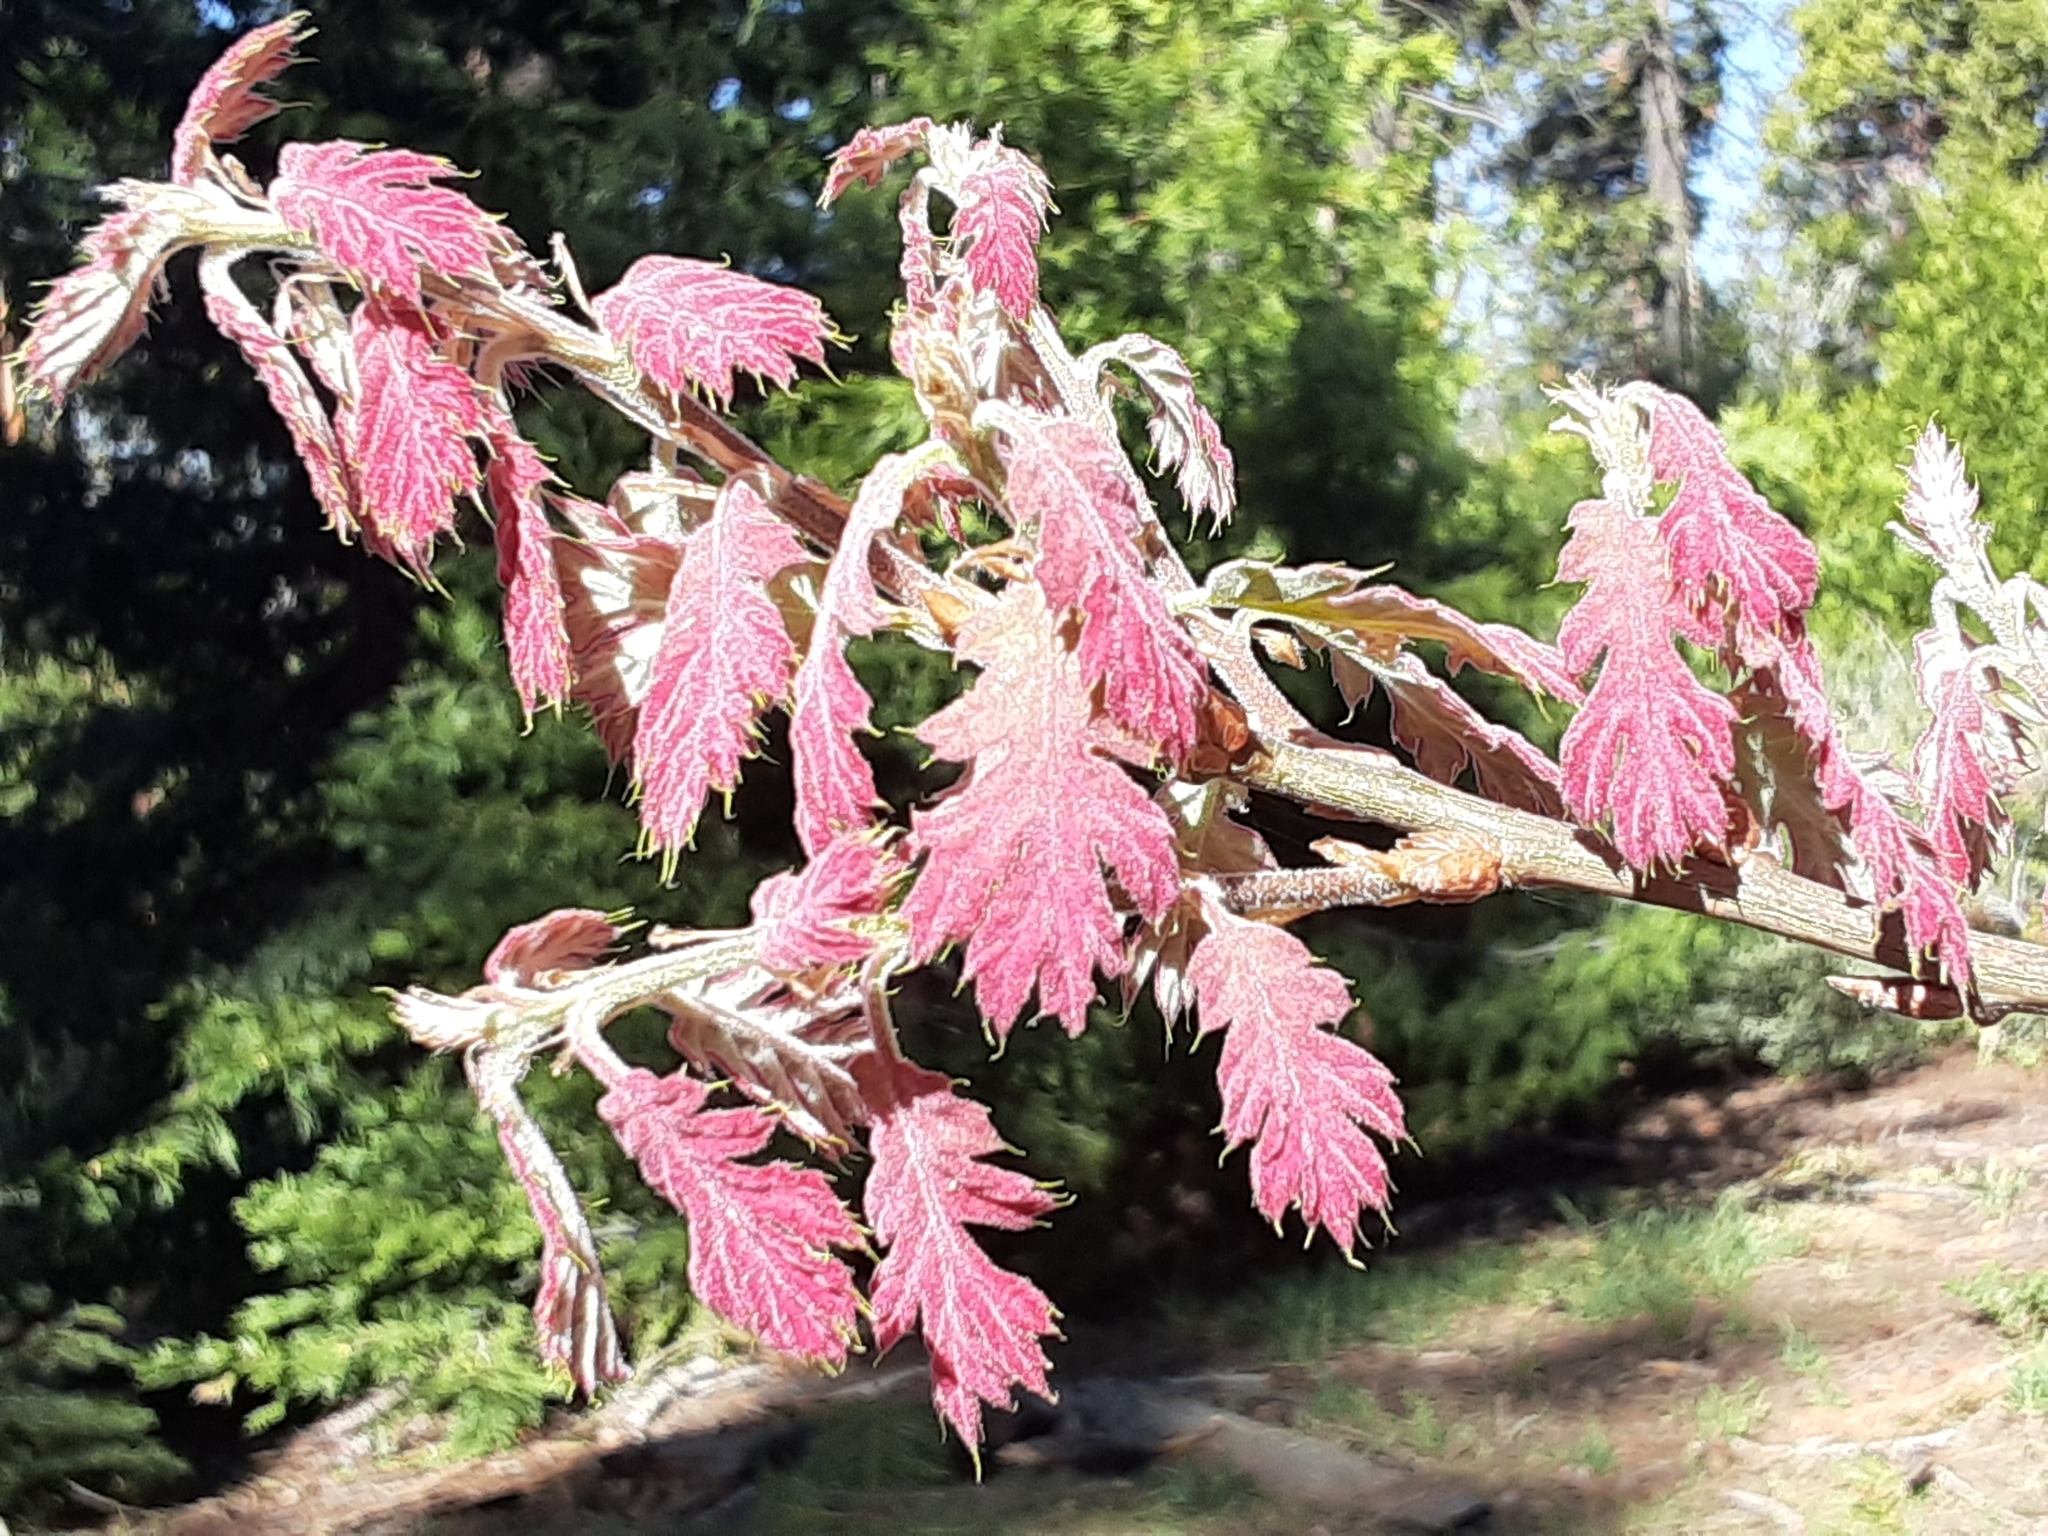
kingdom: Plantae
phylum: Tracheophyta
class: Magnoliopsida
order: Fagales
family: Fagaceae
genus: Quercus
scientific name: Quercus kelloggii
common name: California black oak
